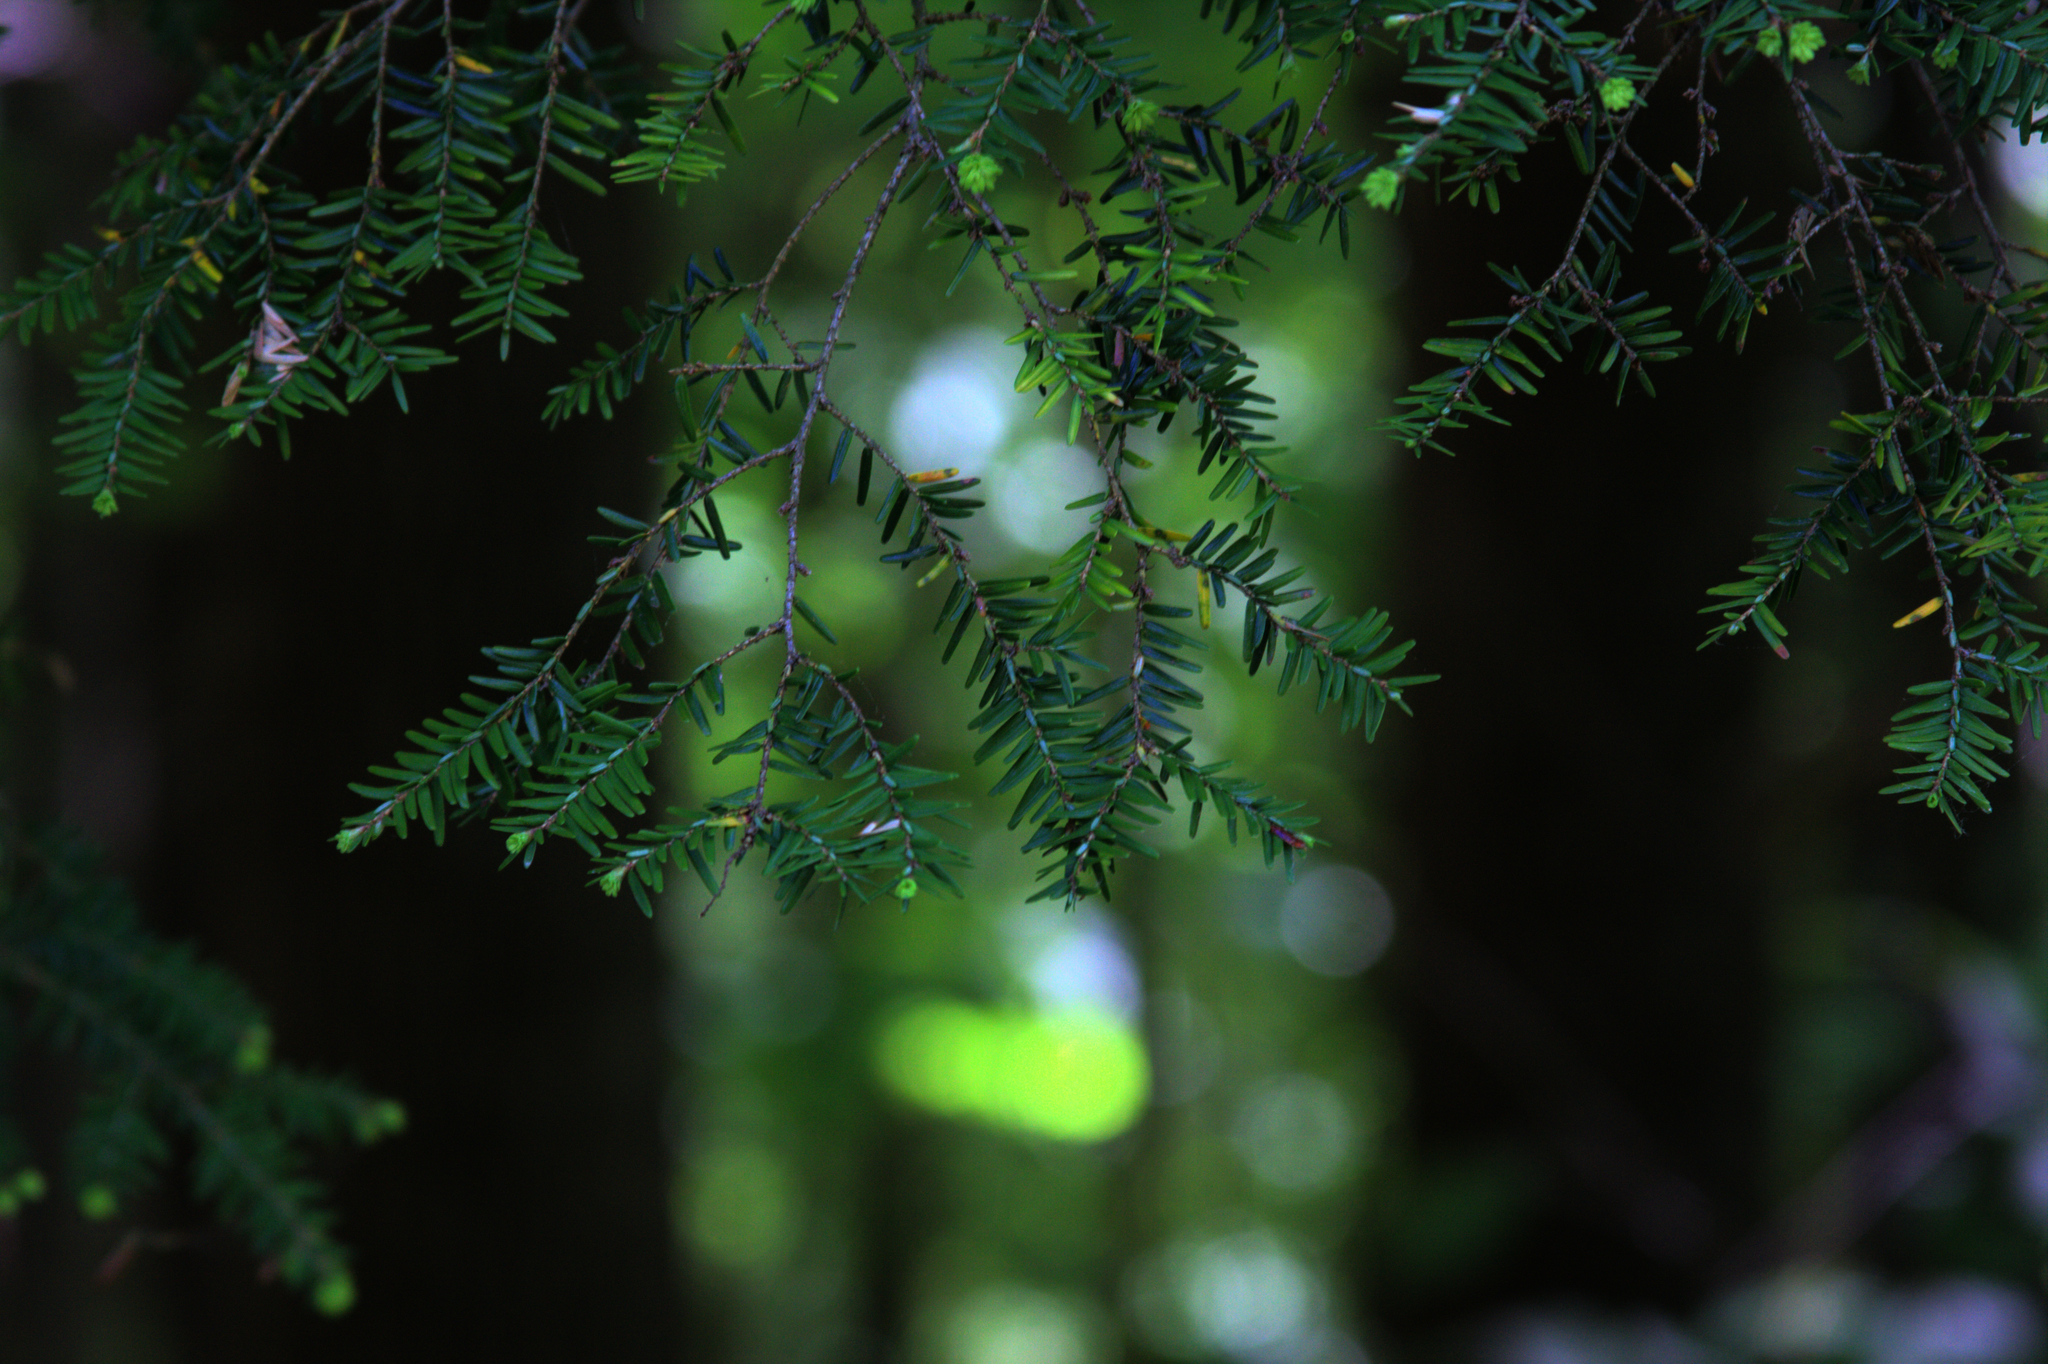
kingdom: Plantae
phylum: Tracheophyta
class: Pinopsida
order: Pinales
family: Pinaceae
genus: Tsuga
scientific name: Tsuga canadensis
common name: Eastern hemlock
